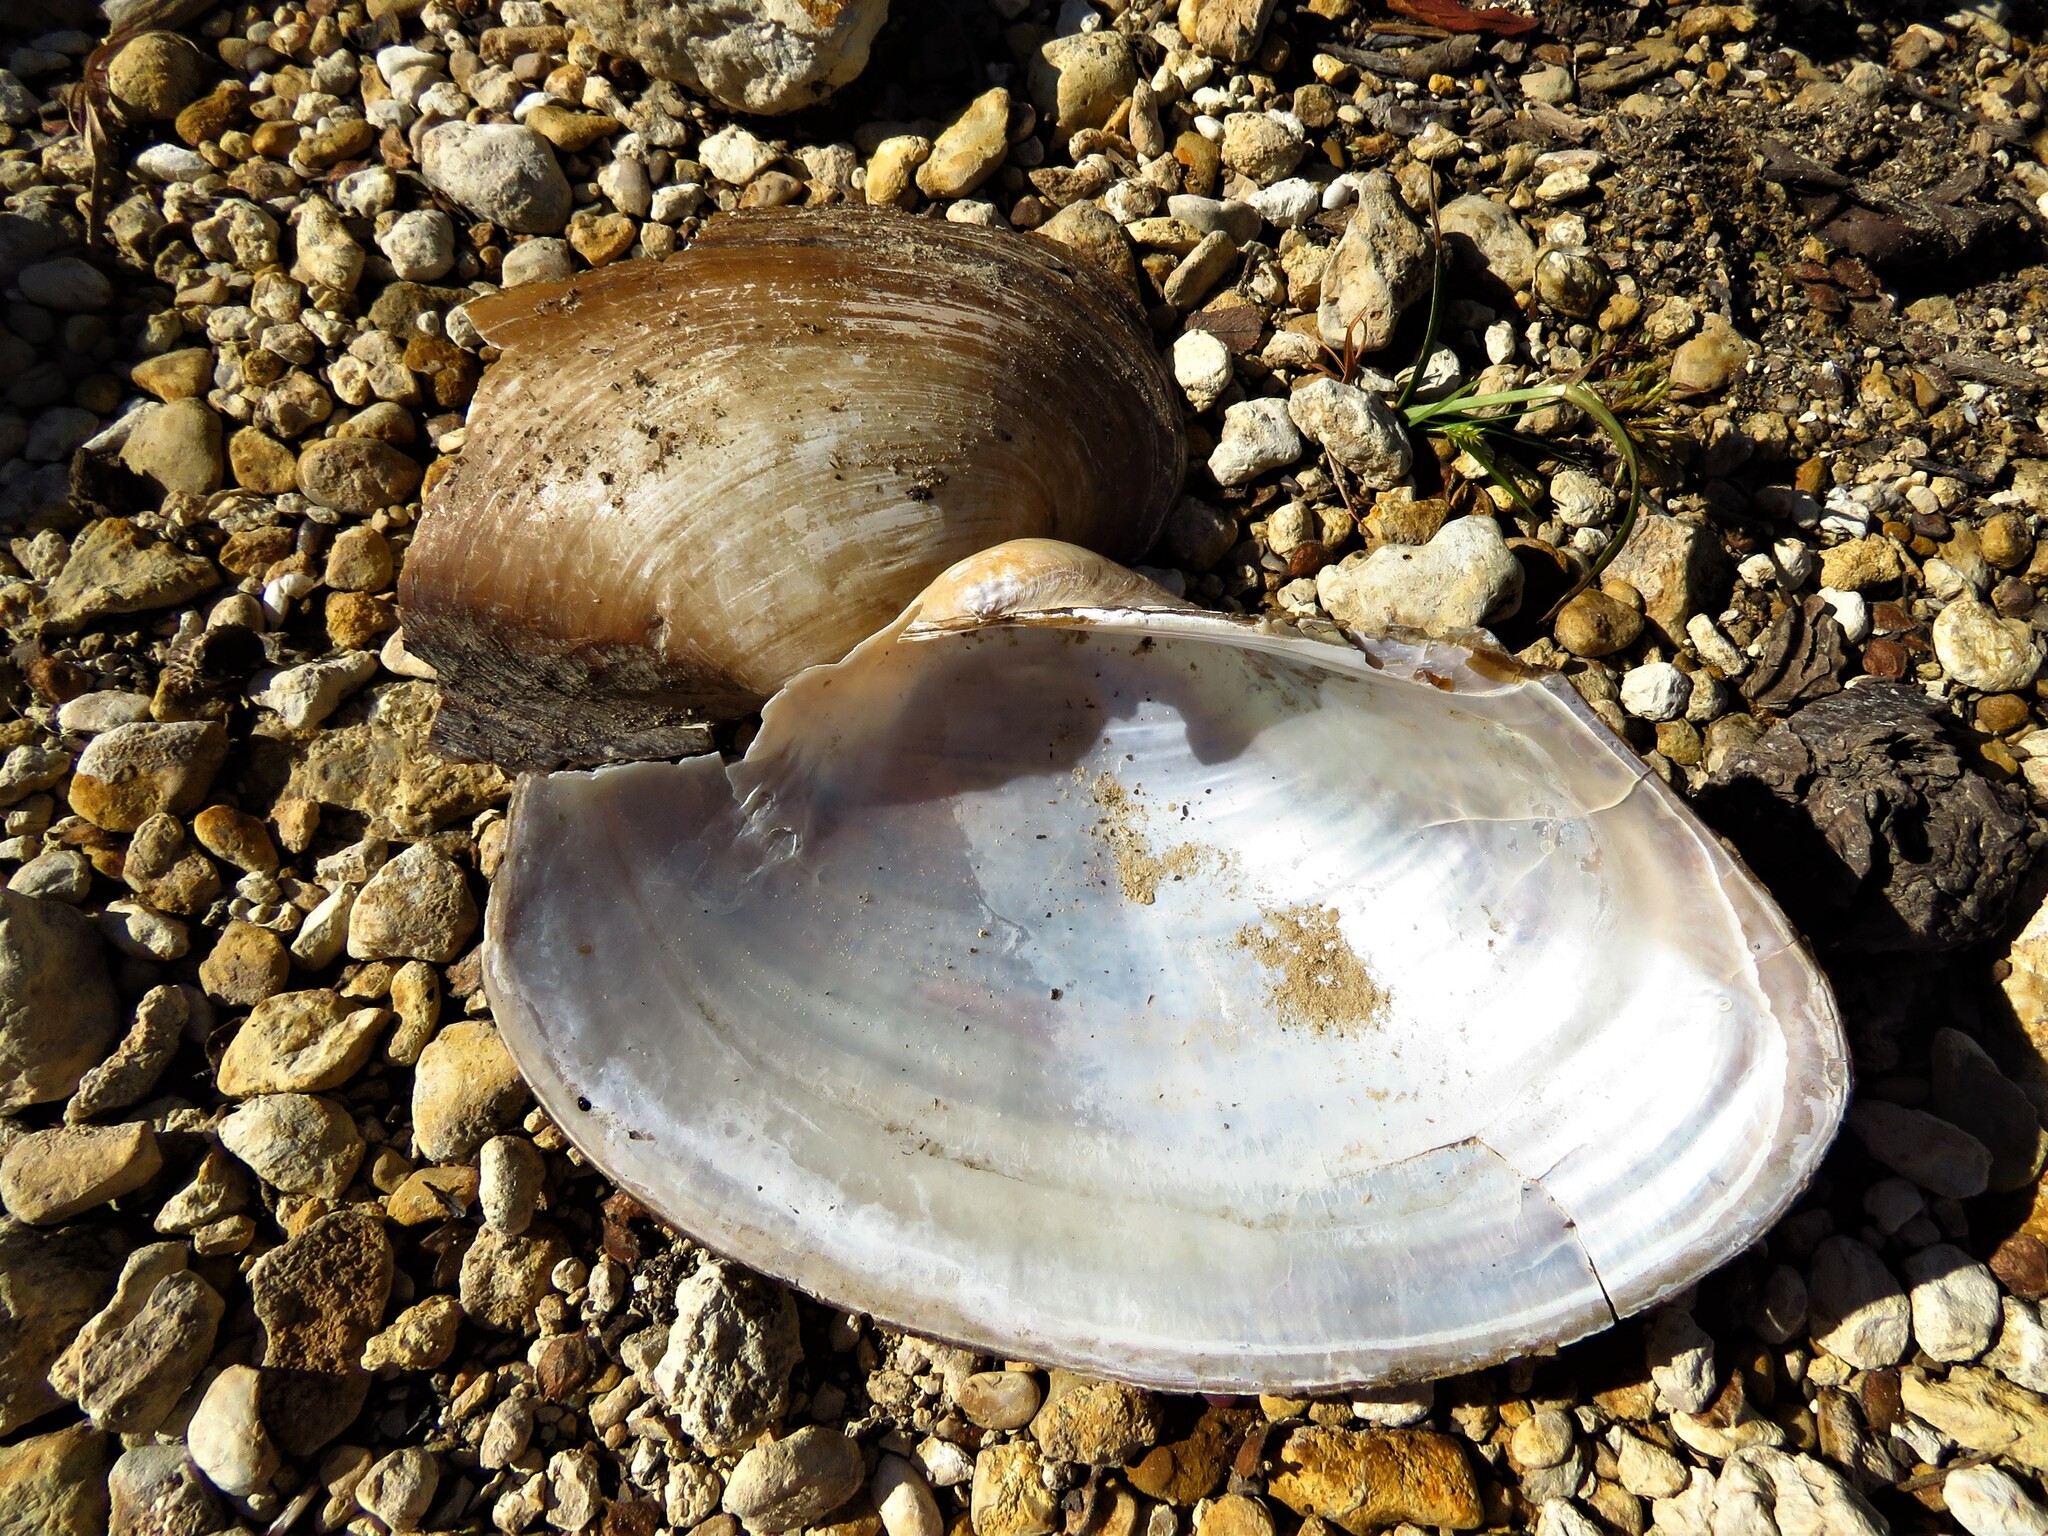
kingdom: Animalia
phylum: Mollusca
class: Bivalvia
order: Unionida
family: Unionidae
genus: Pyganodon
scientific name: Pyganodon grandis
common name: Giant floater
